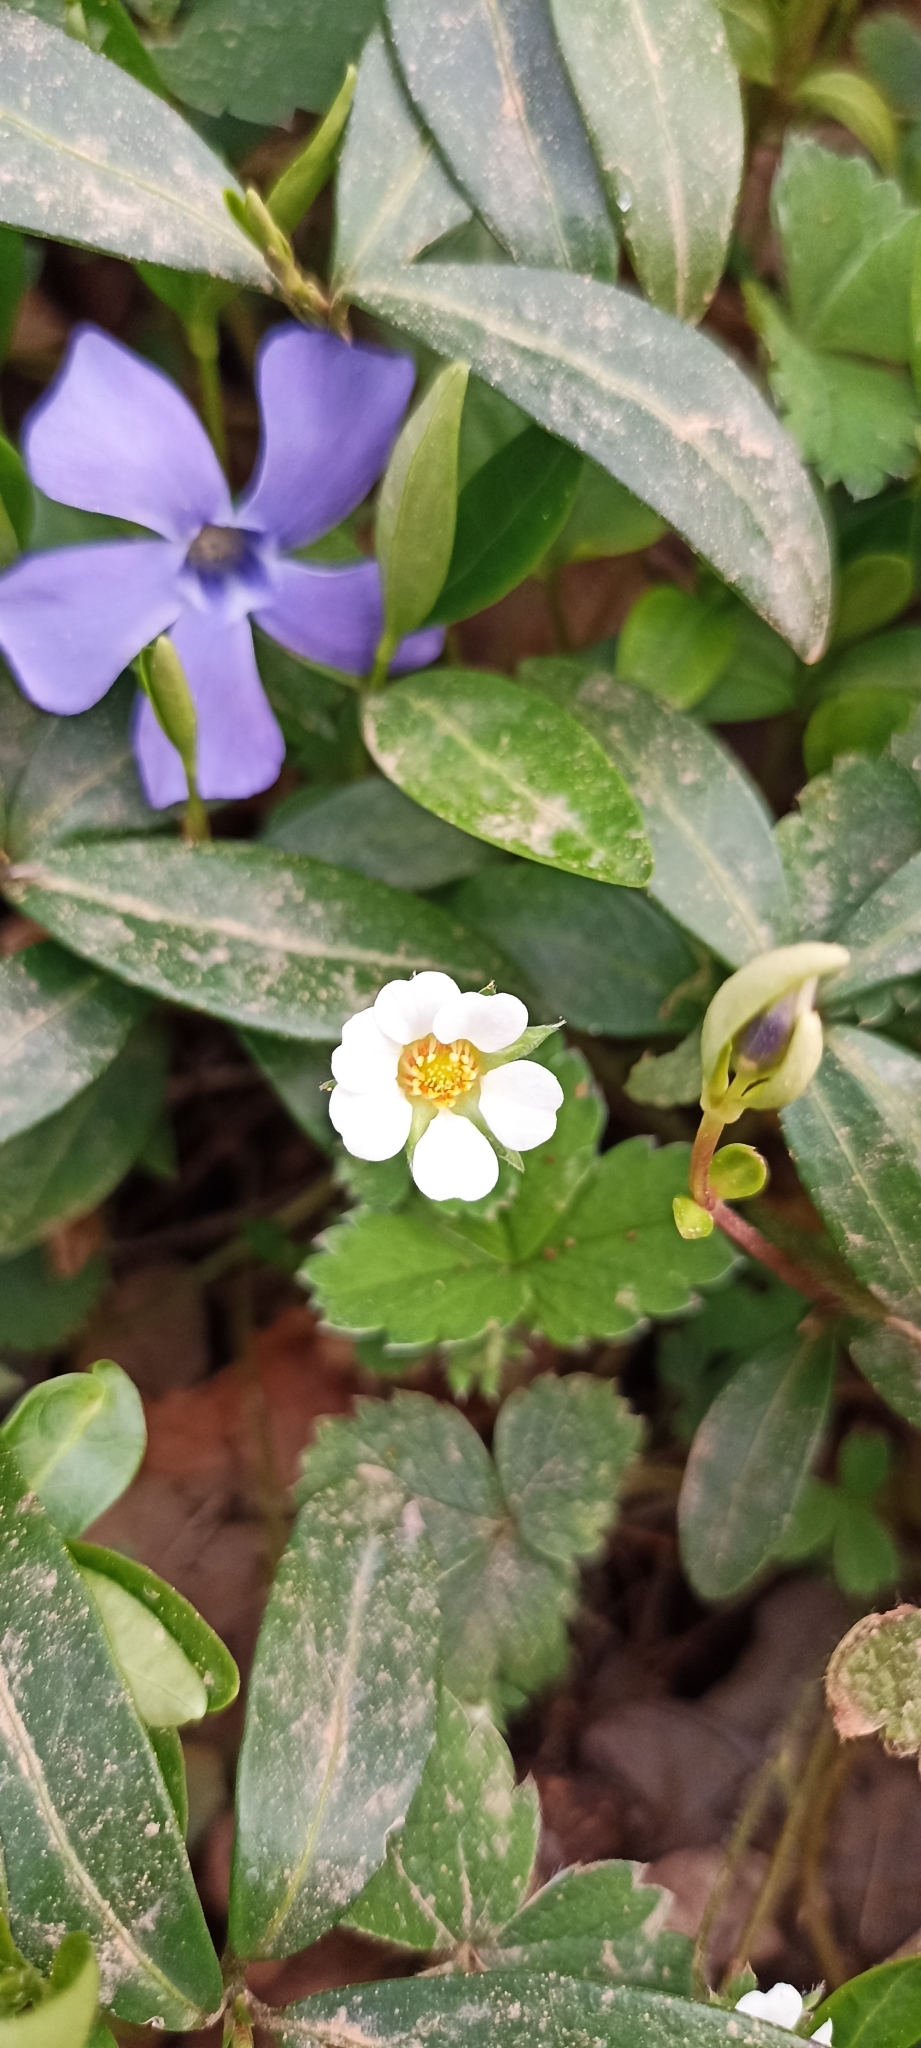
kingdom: Plantae
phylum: Tracheophyta
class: Magnoliopsida
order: Rosales
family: Rosaceae
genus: Potentilla
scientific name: Potentilla sterilis
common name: Barren strawberry
